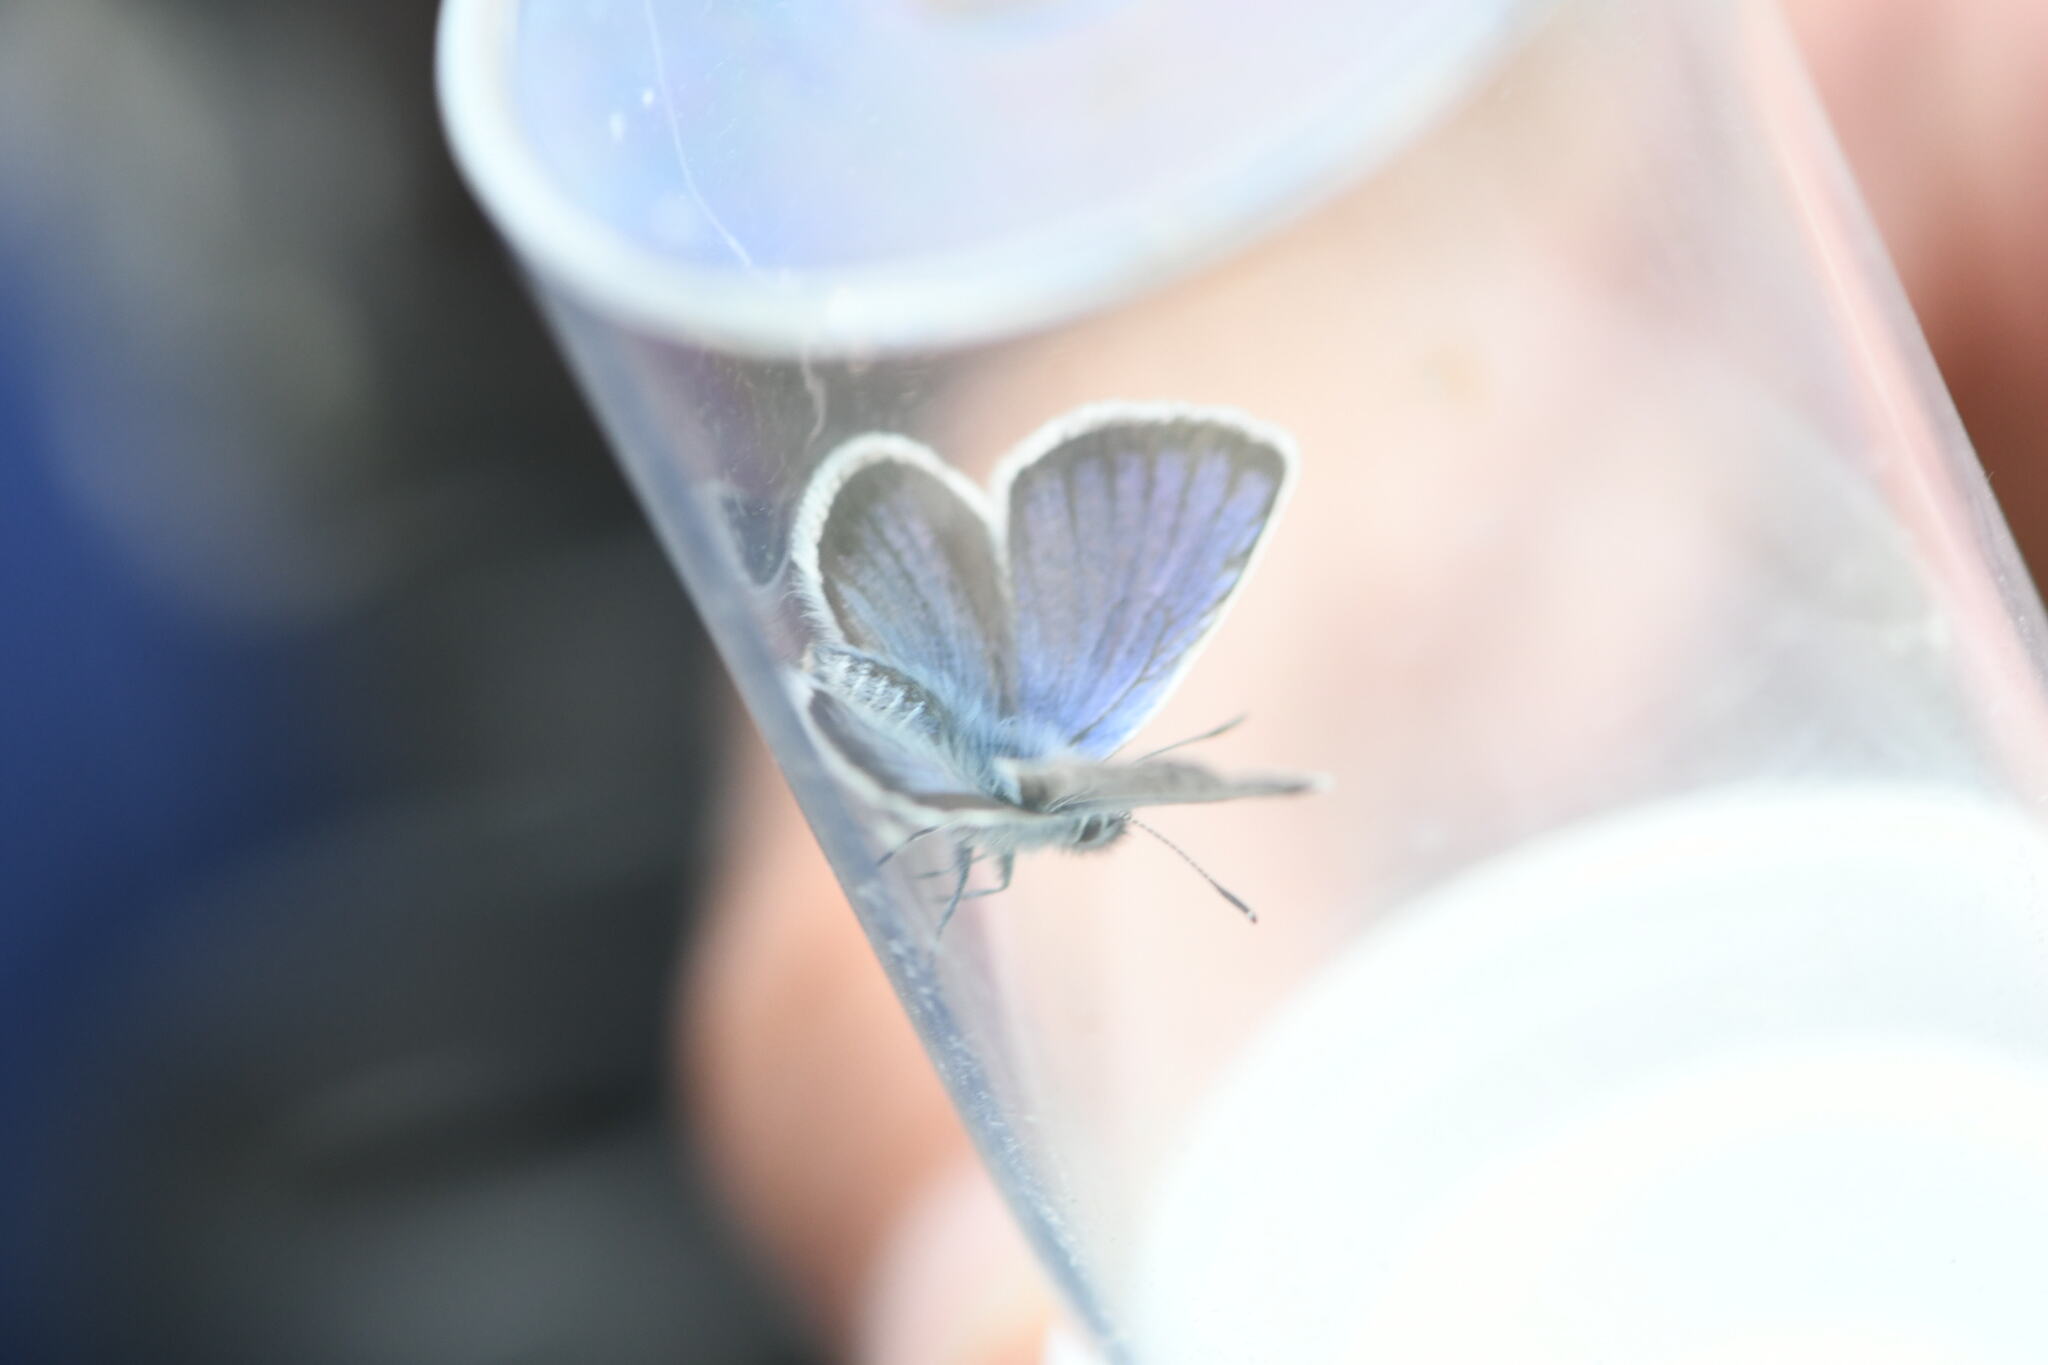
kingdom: Animalia
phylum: Arthropoda
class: Insecta
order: Lepidoptera
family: Lycaenidae
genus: Plebejus
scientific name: Plebejus argus
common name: Silver-studded blue
